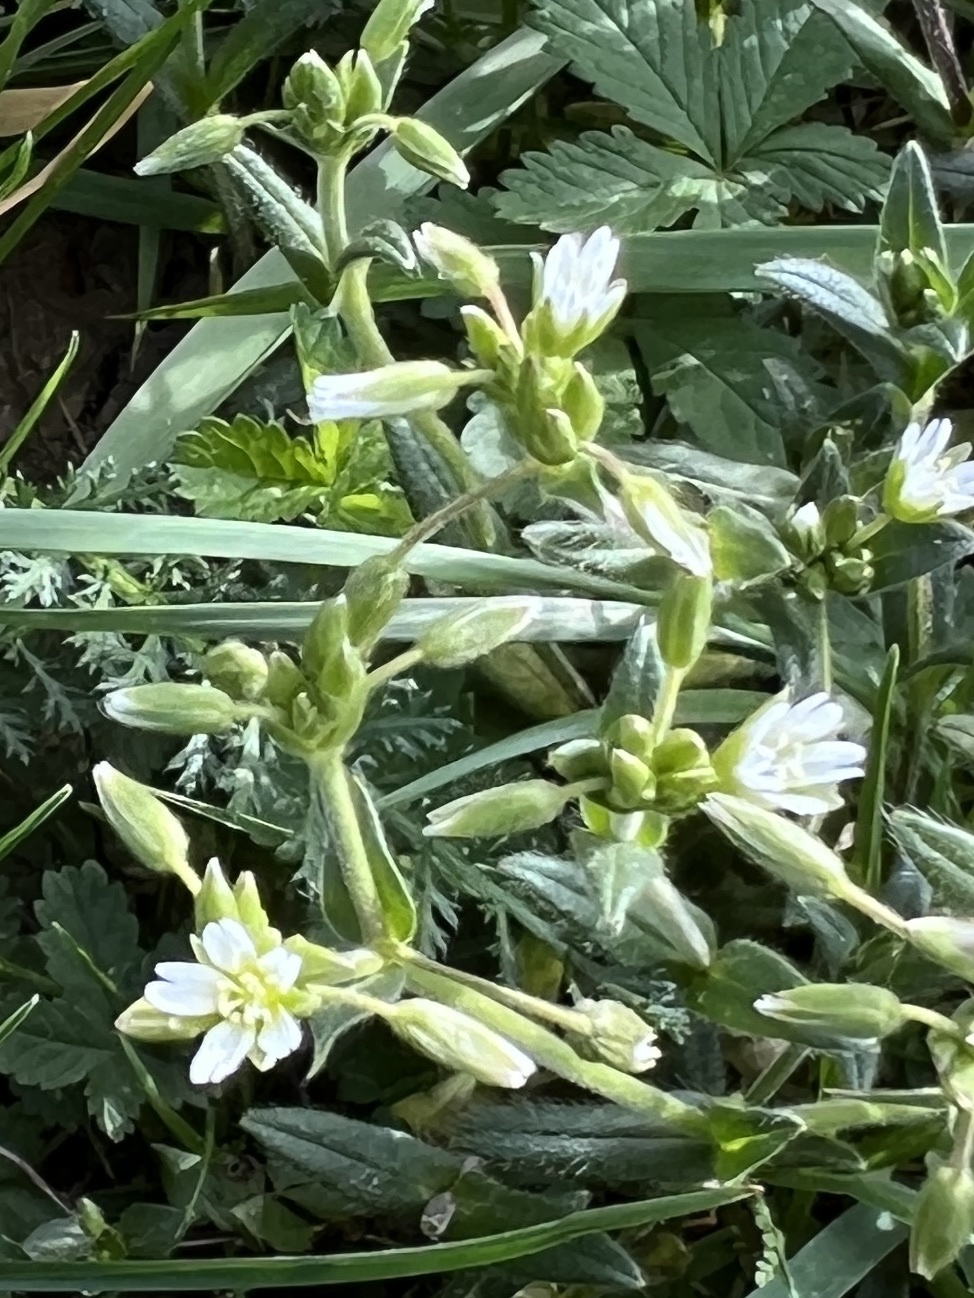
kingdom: Plantae
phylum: Tracheophyta
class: Magnoliopsida
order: Caryophyllales
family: Caryophyllaceae
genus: Cerastium
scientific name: Cerastium holosteoides
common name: Big chickweed
